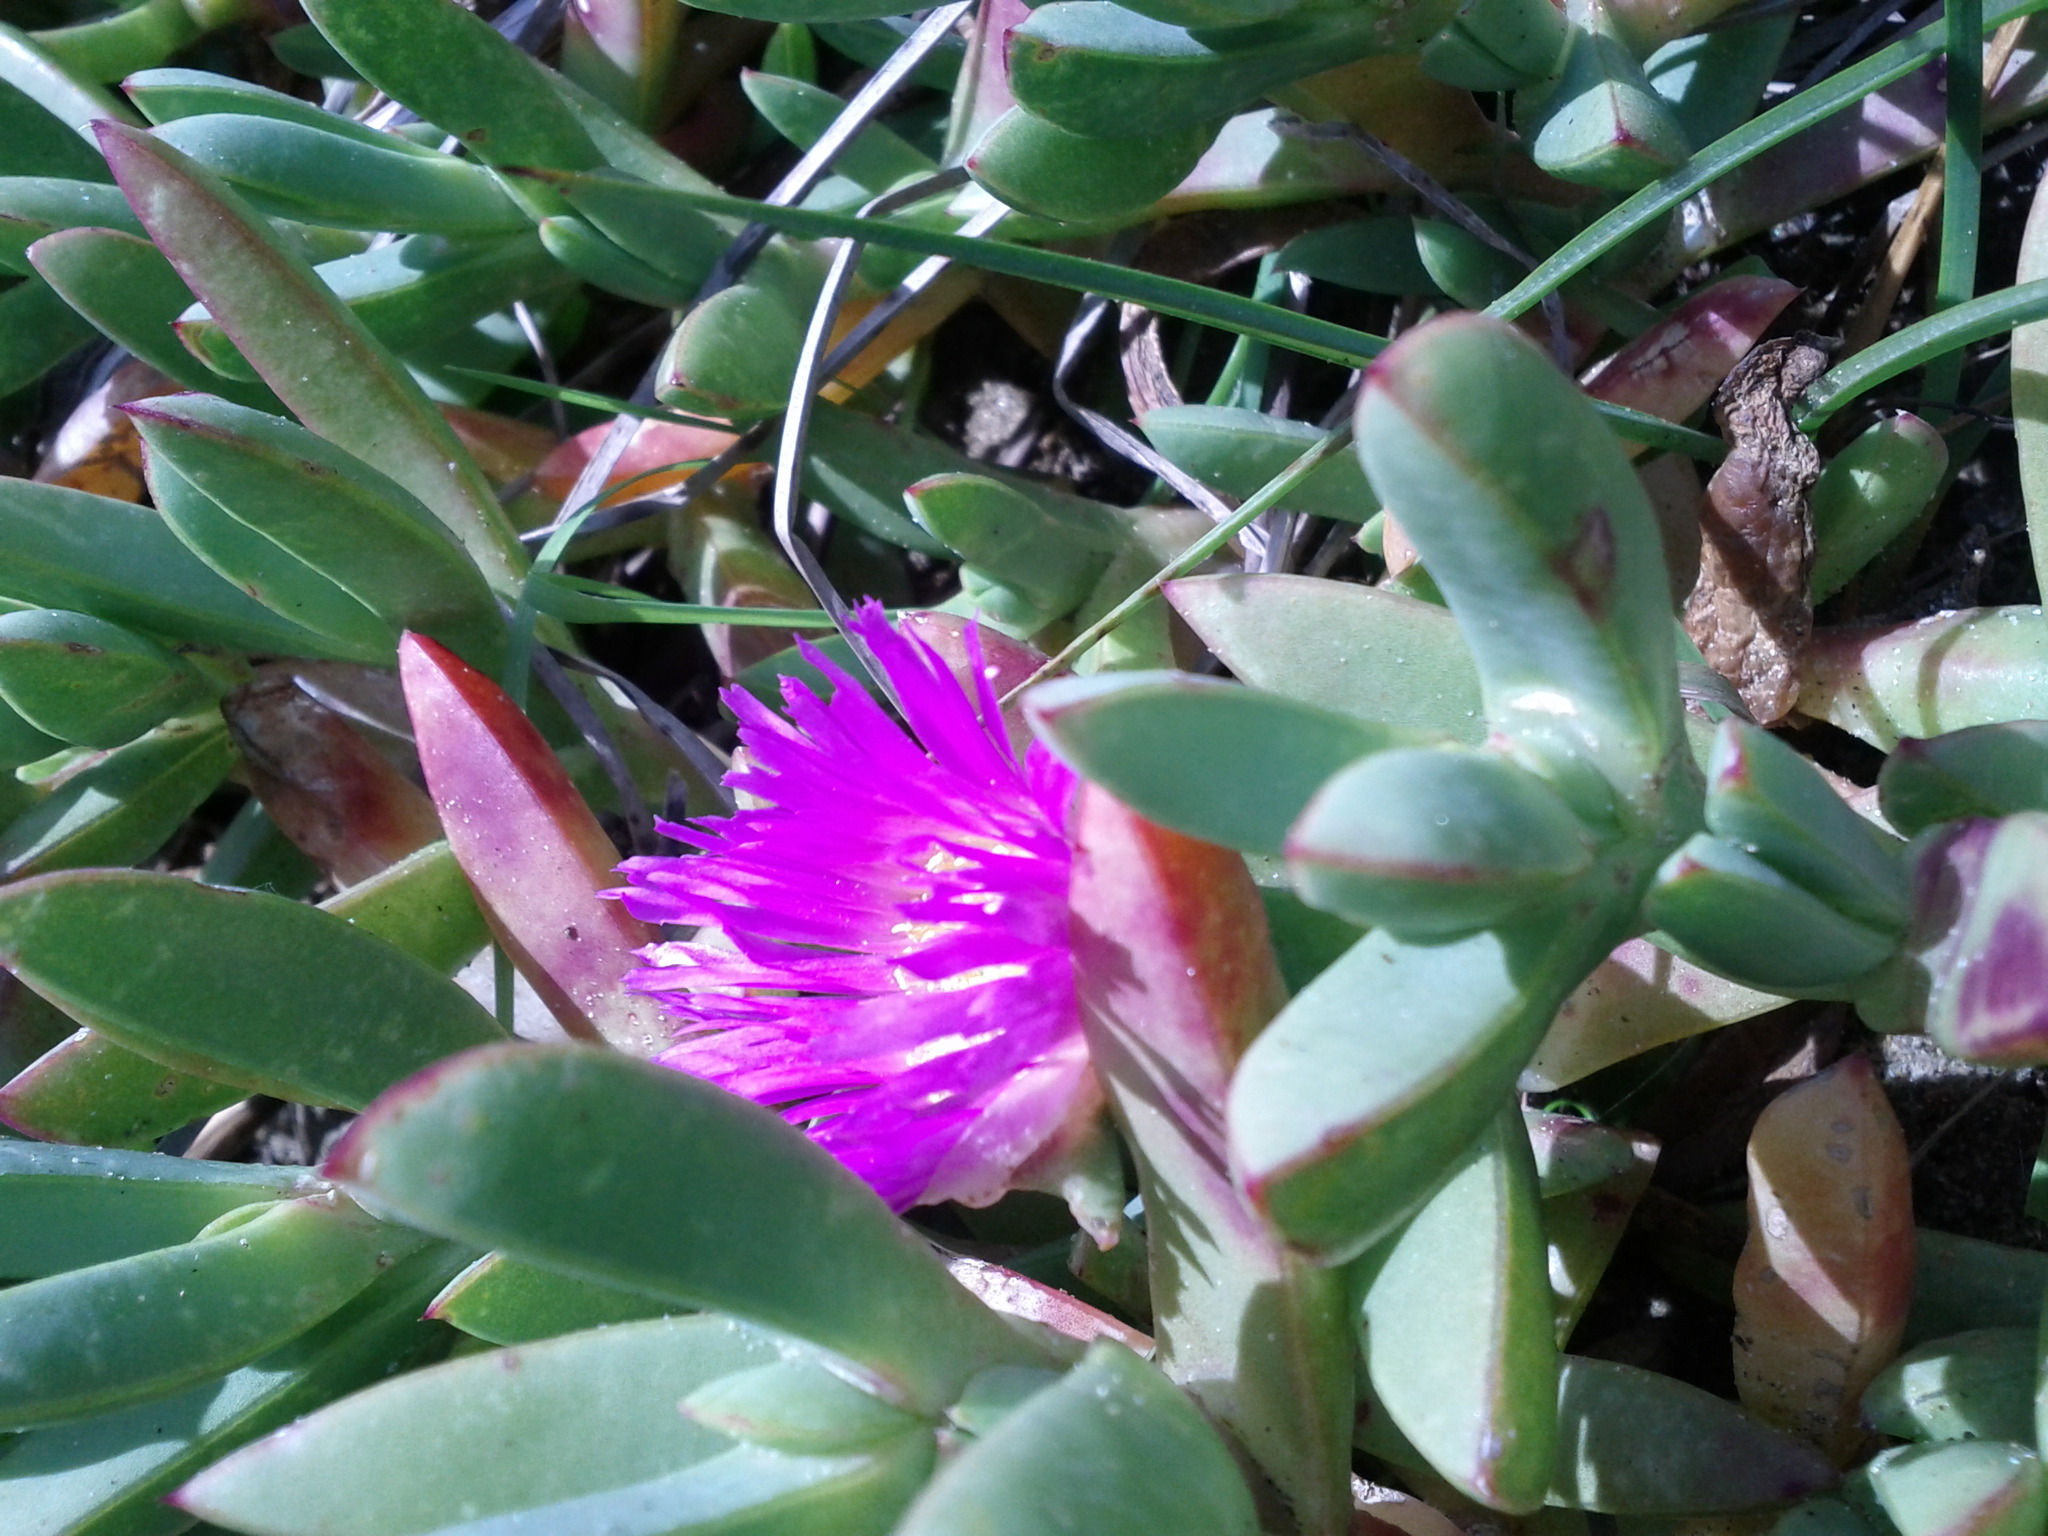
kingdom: Plantae
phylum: Tracheophyta
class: Magnoliopsida
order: Caryophyllales
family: Aizoaceae
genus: Carpobrotus
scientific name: Carpobrotus chilensis
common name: Sea fig
